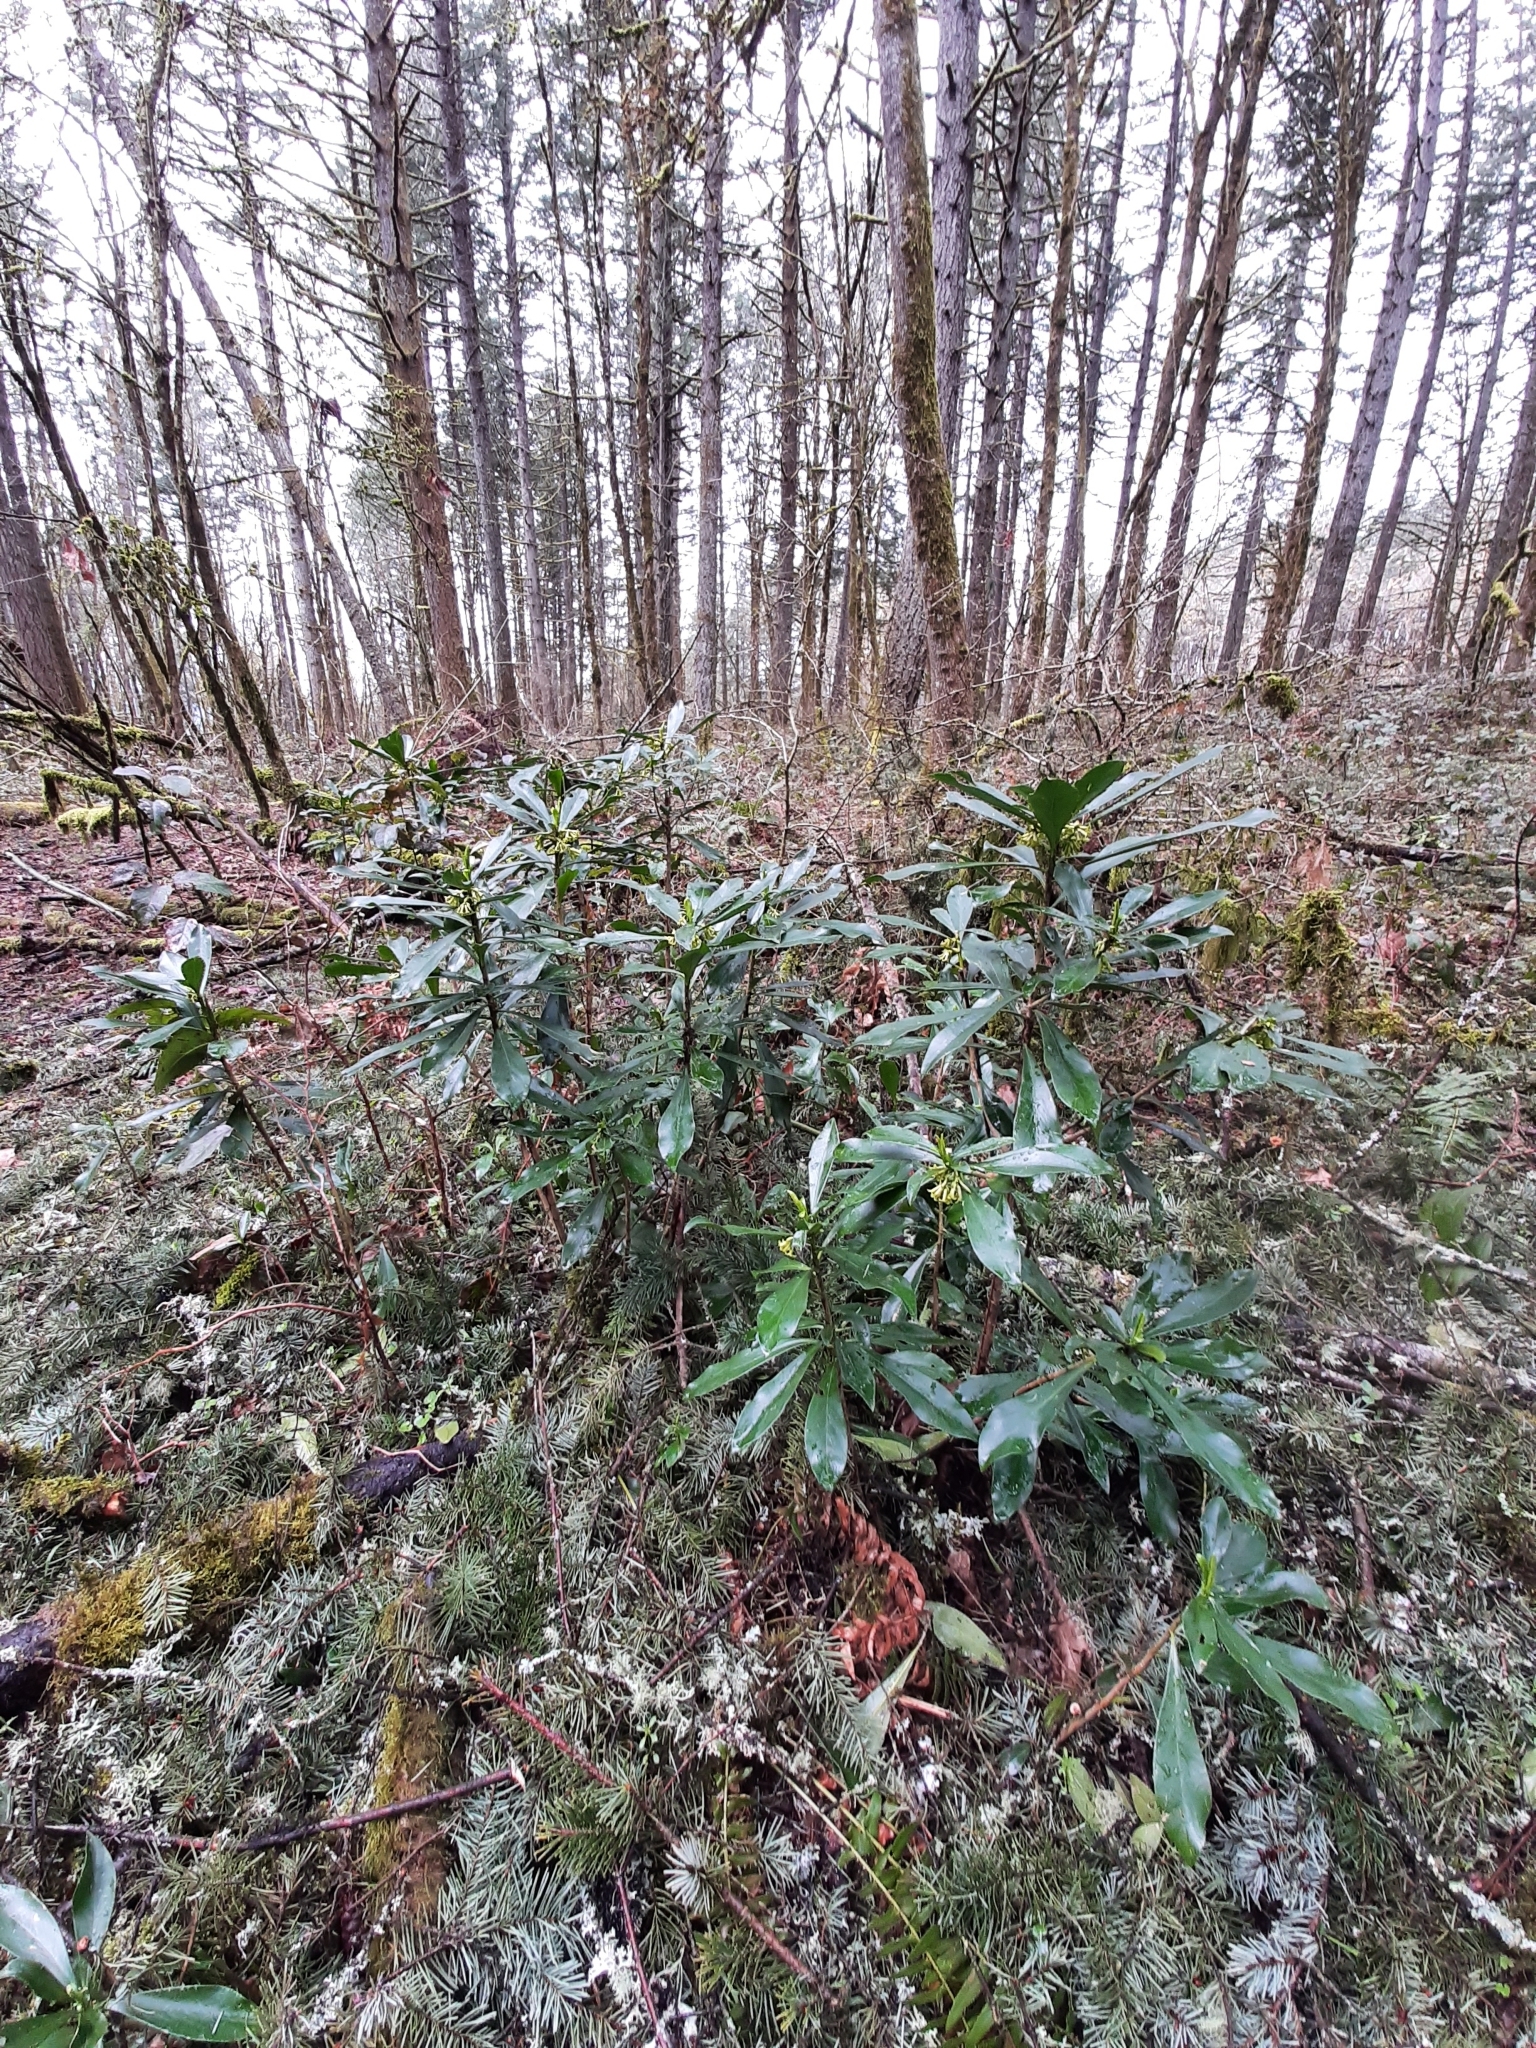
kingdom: Plantae
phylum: Tracheophyta
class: Magnoliopsida
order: Malvales
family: Thymelaeaceae
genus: Daphne
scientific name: Daphne laureola
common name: Spurge-laurel
